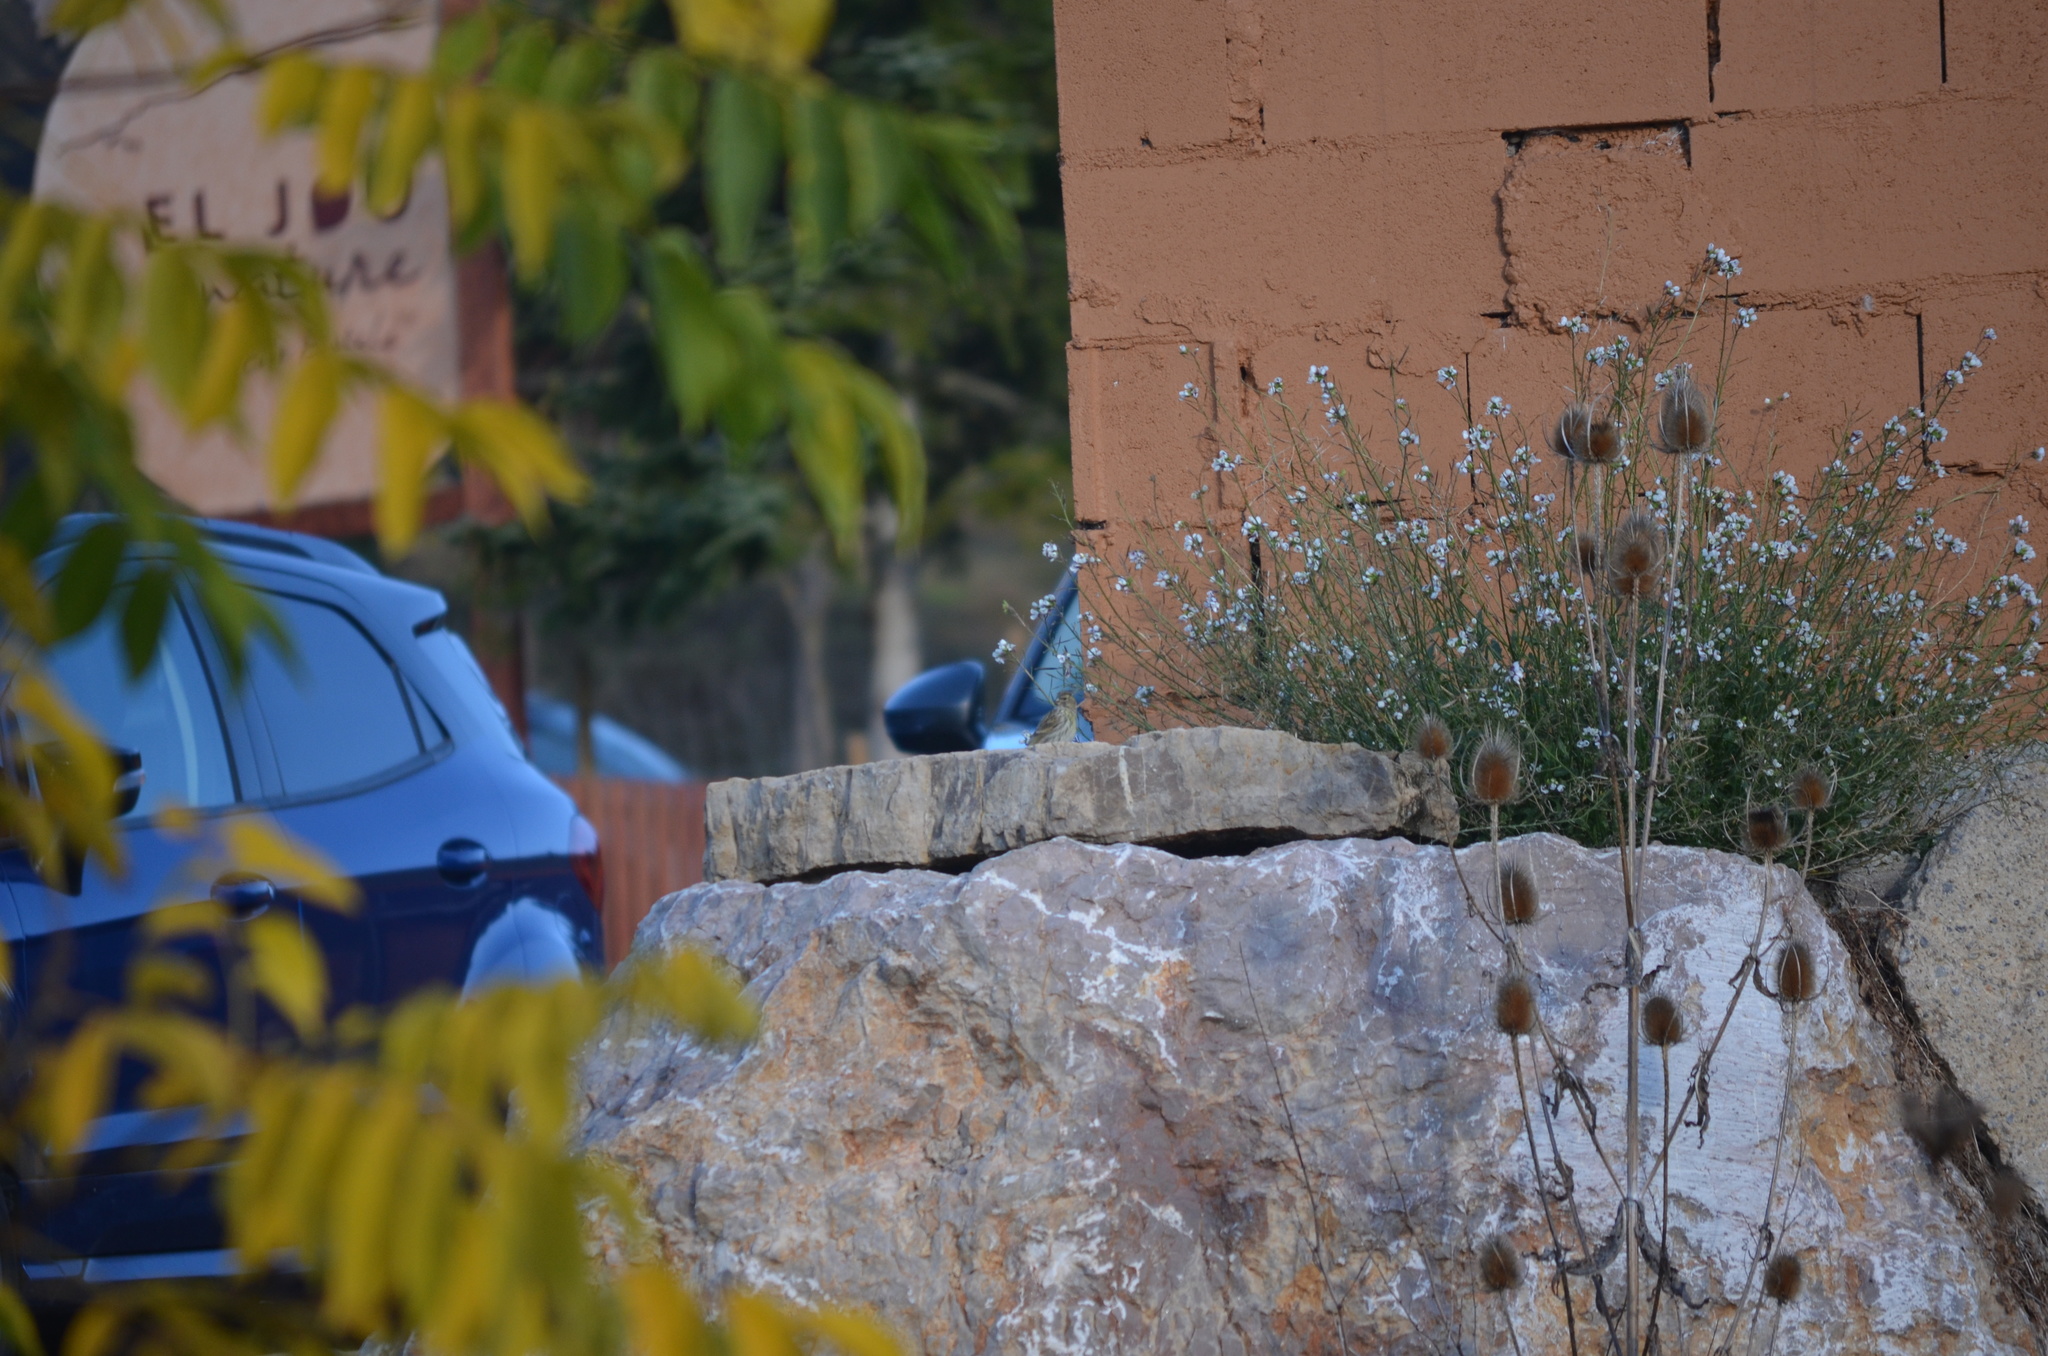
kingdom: Animalia
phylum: Chordata
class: Aves
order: Passeriformes
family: Fringillidae
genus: Serinus
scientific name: Serinus serinus
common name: European serin
